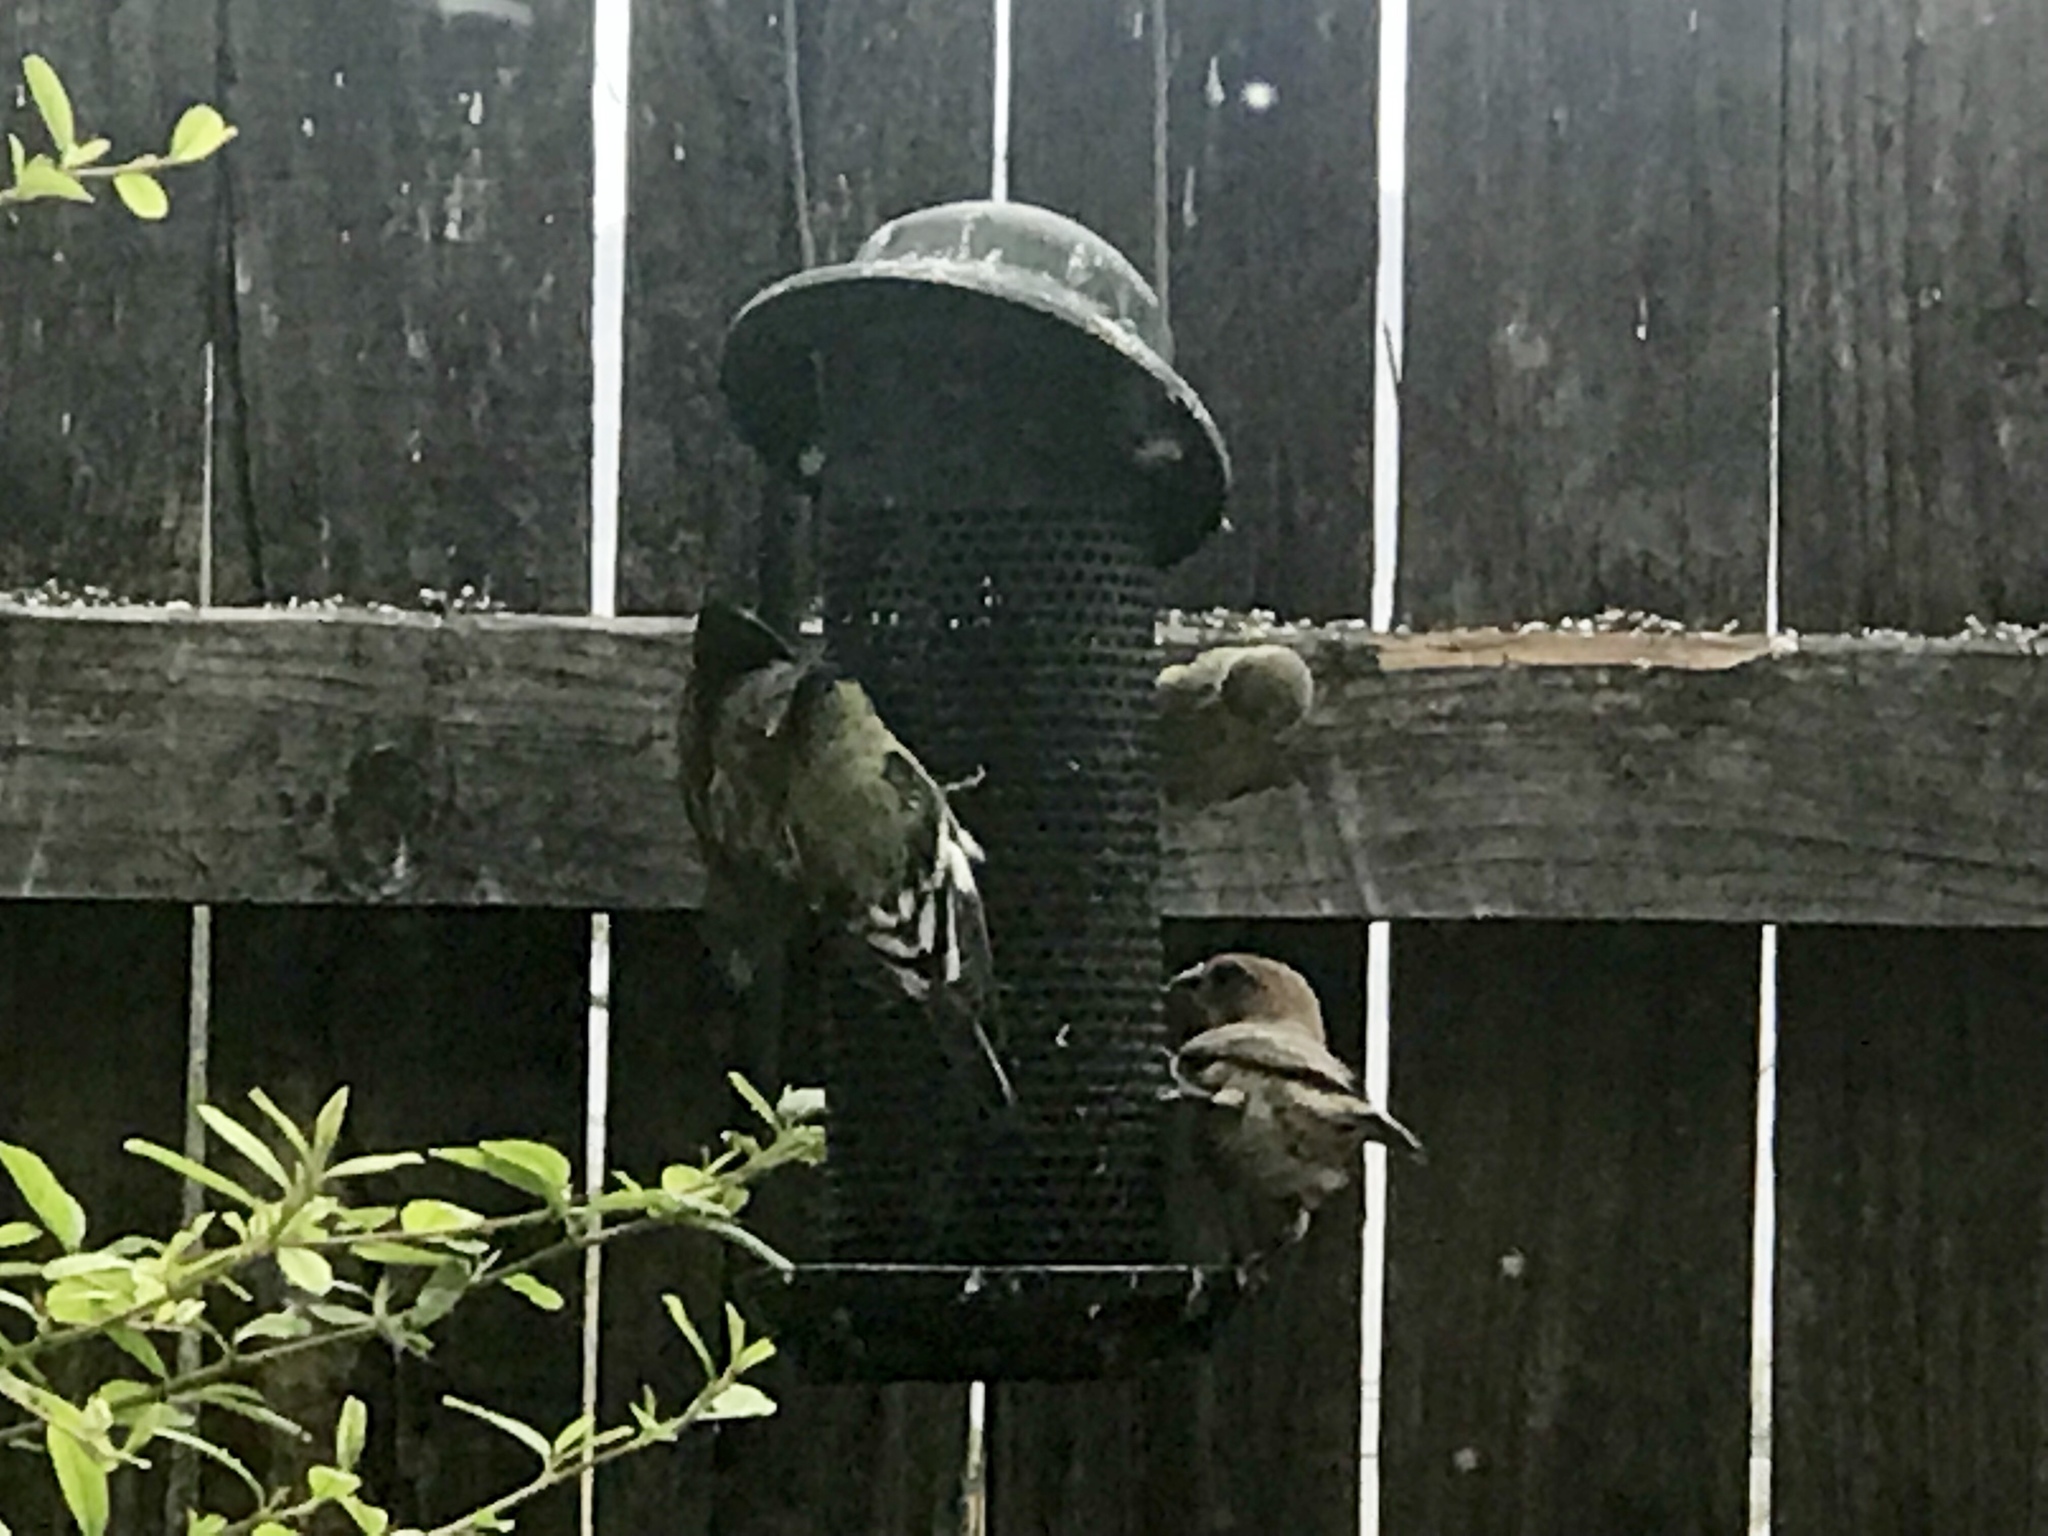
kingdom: Animalia
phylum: Chordata
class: Aves
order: Passeriformes
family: Fringillidae
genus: Spinus
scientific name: Spinus psaltria
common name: Lesser goldfinch
